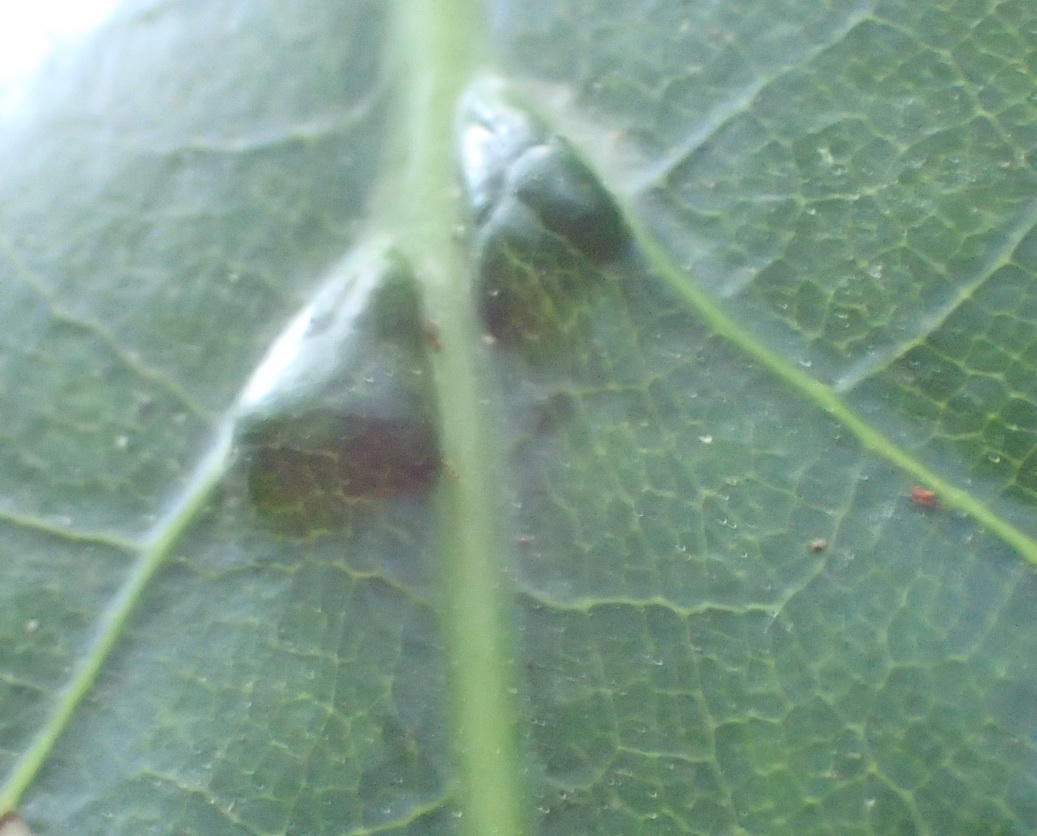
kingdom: Plantae
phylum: Tracheophyta
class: Magnoliopsida
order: Laurales
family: Lauraceae
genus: Ocotea
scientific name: Ocotea bullata
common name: Black stinkwood
